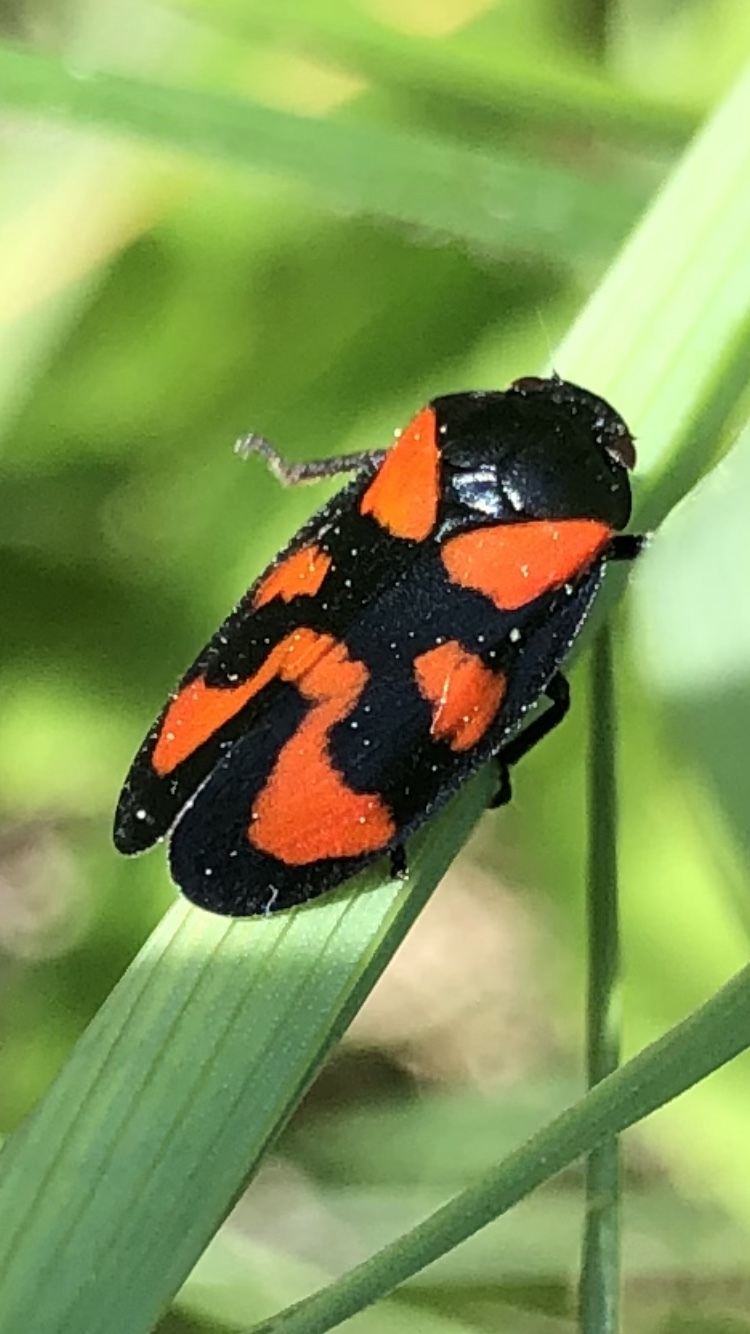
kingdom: Animalia
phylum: Arthropoda
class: Insecta
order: Hemiptera
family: Cercopidae
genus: Cercopis
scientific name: Cercopis vulnerata
